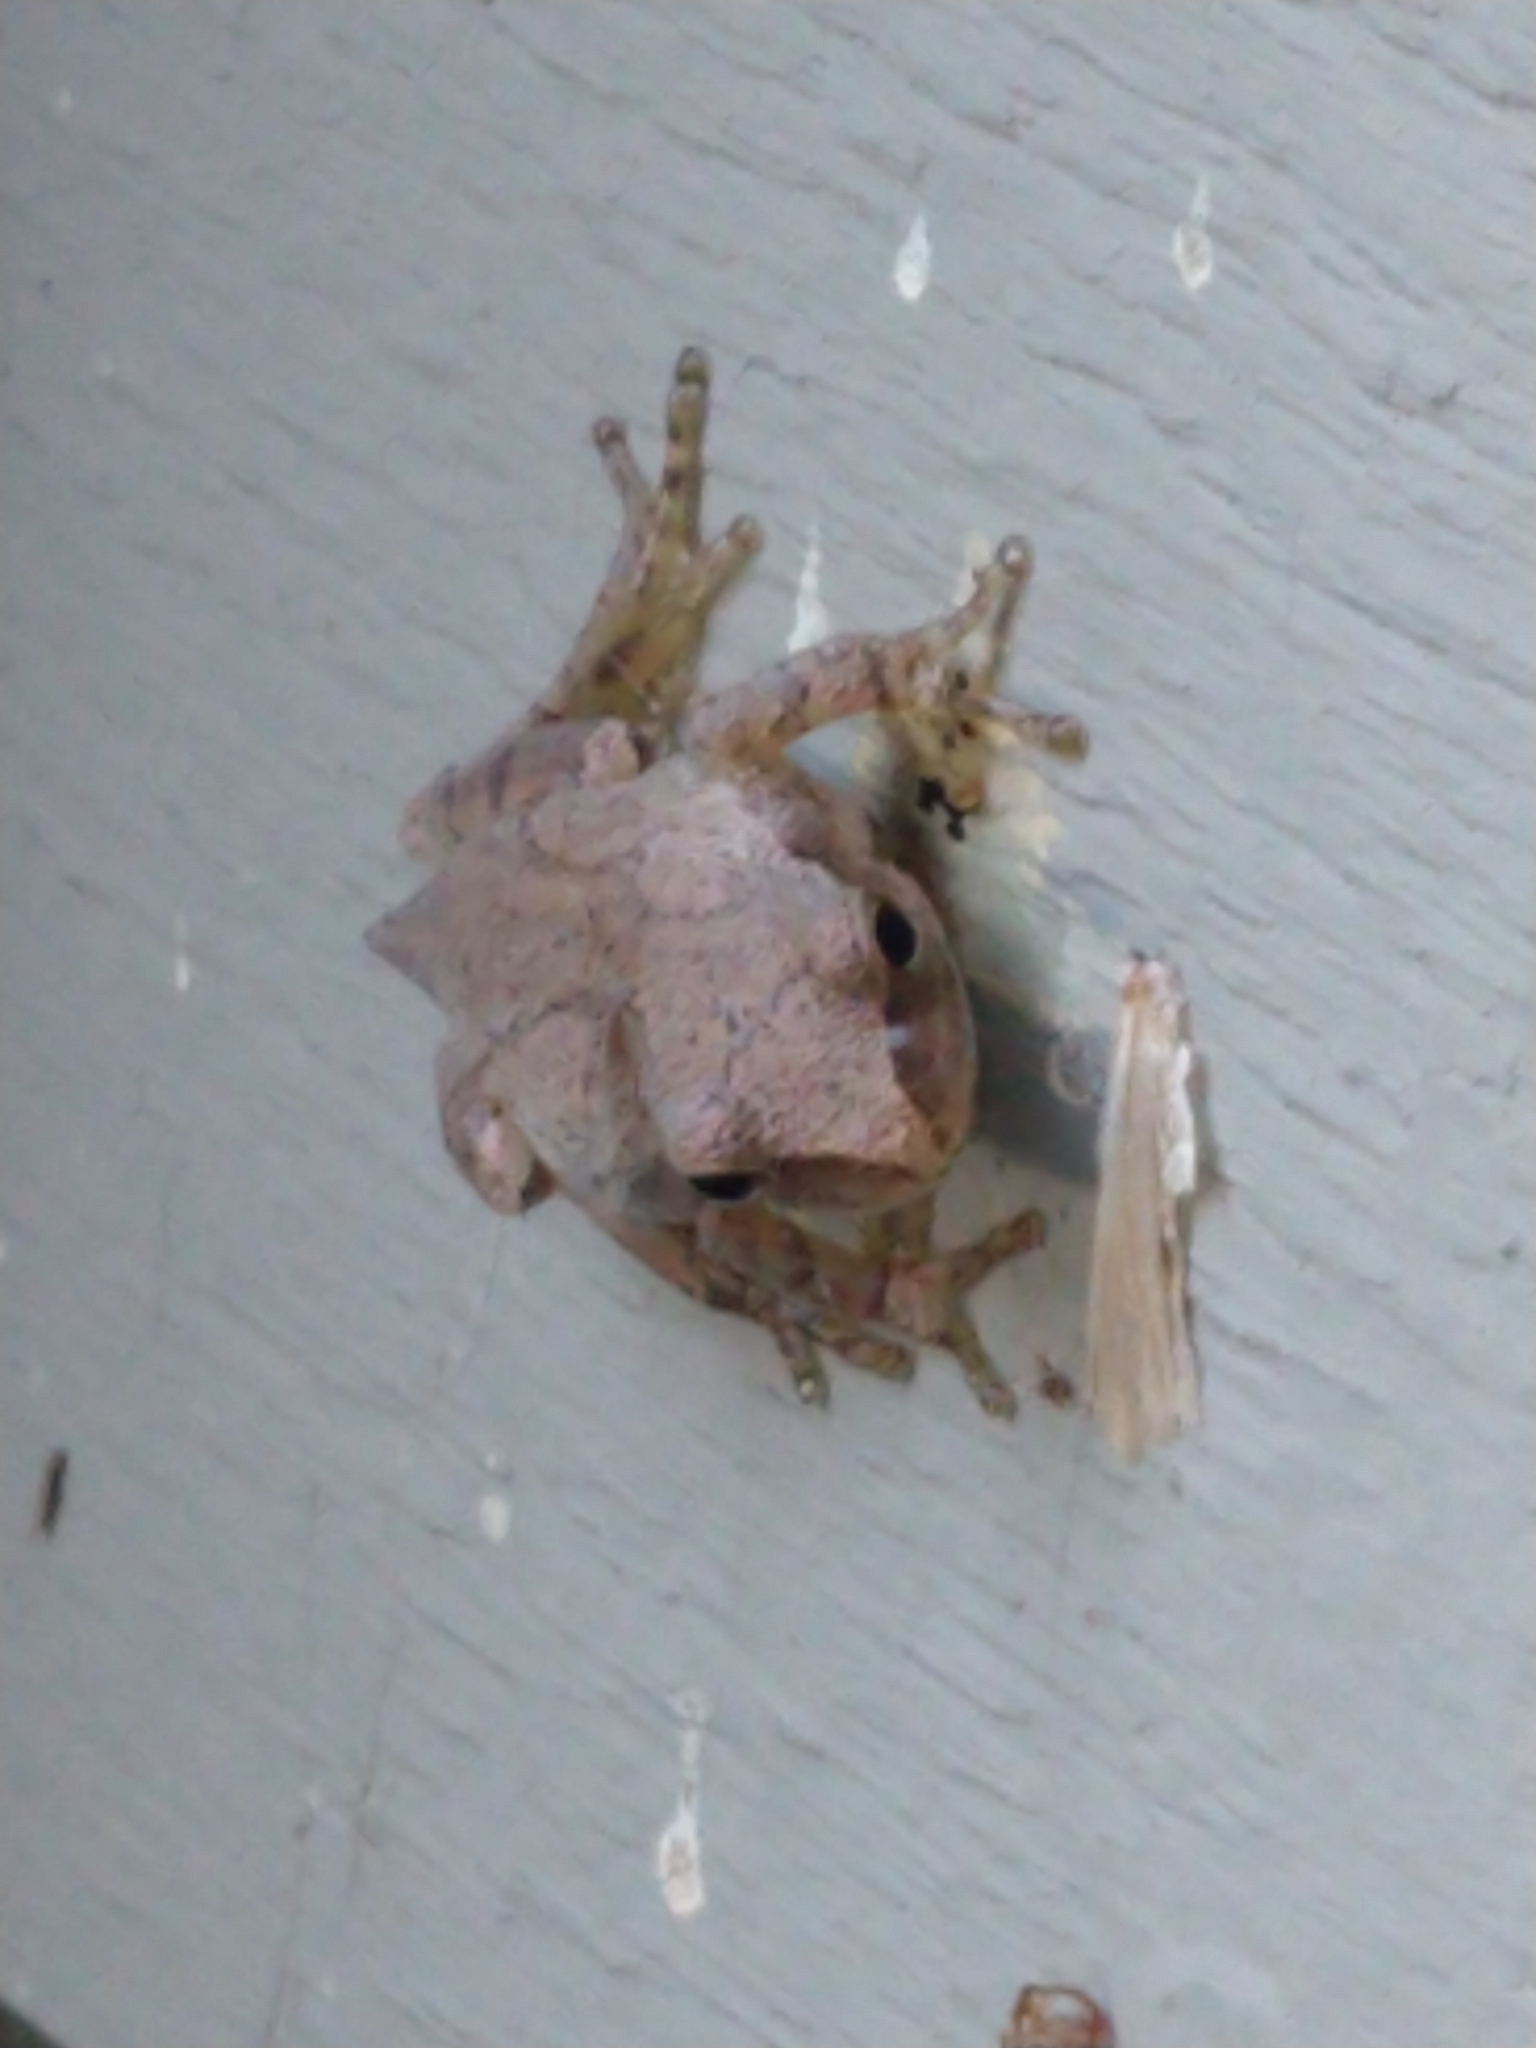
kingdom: Animalia
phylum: Chordata
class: Amphibia
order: Anura
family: Hylidae
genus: Pseudacris
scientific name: Pseudacris crucifer
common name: Spring peeper
